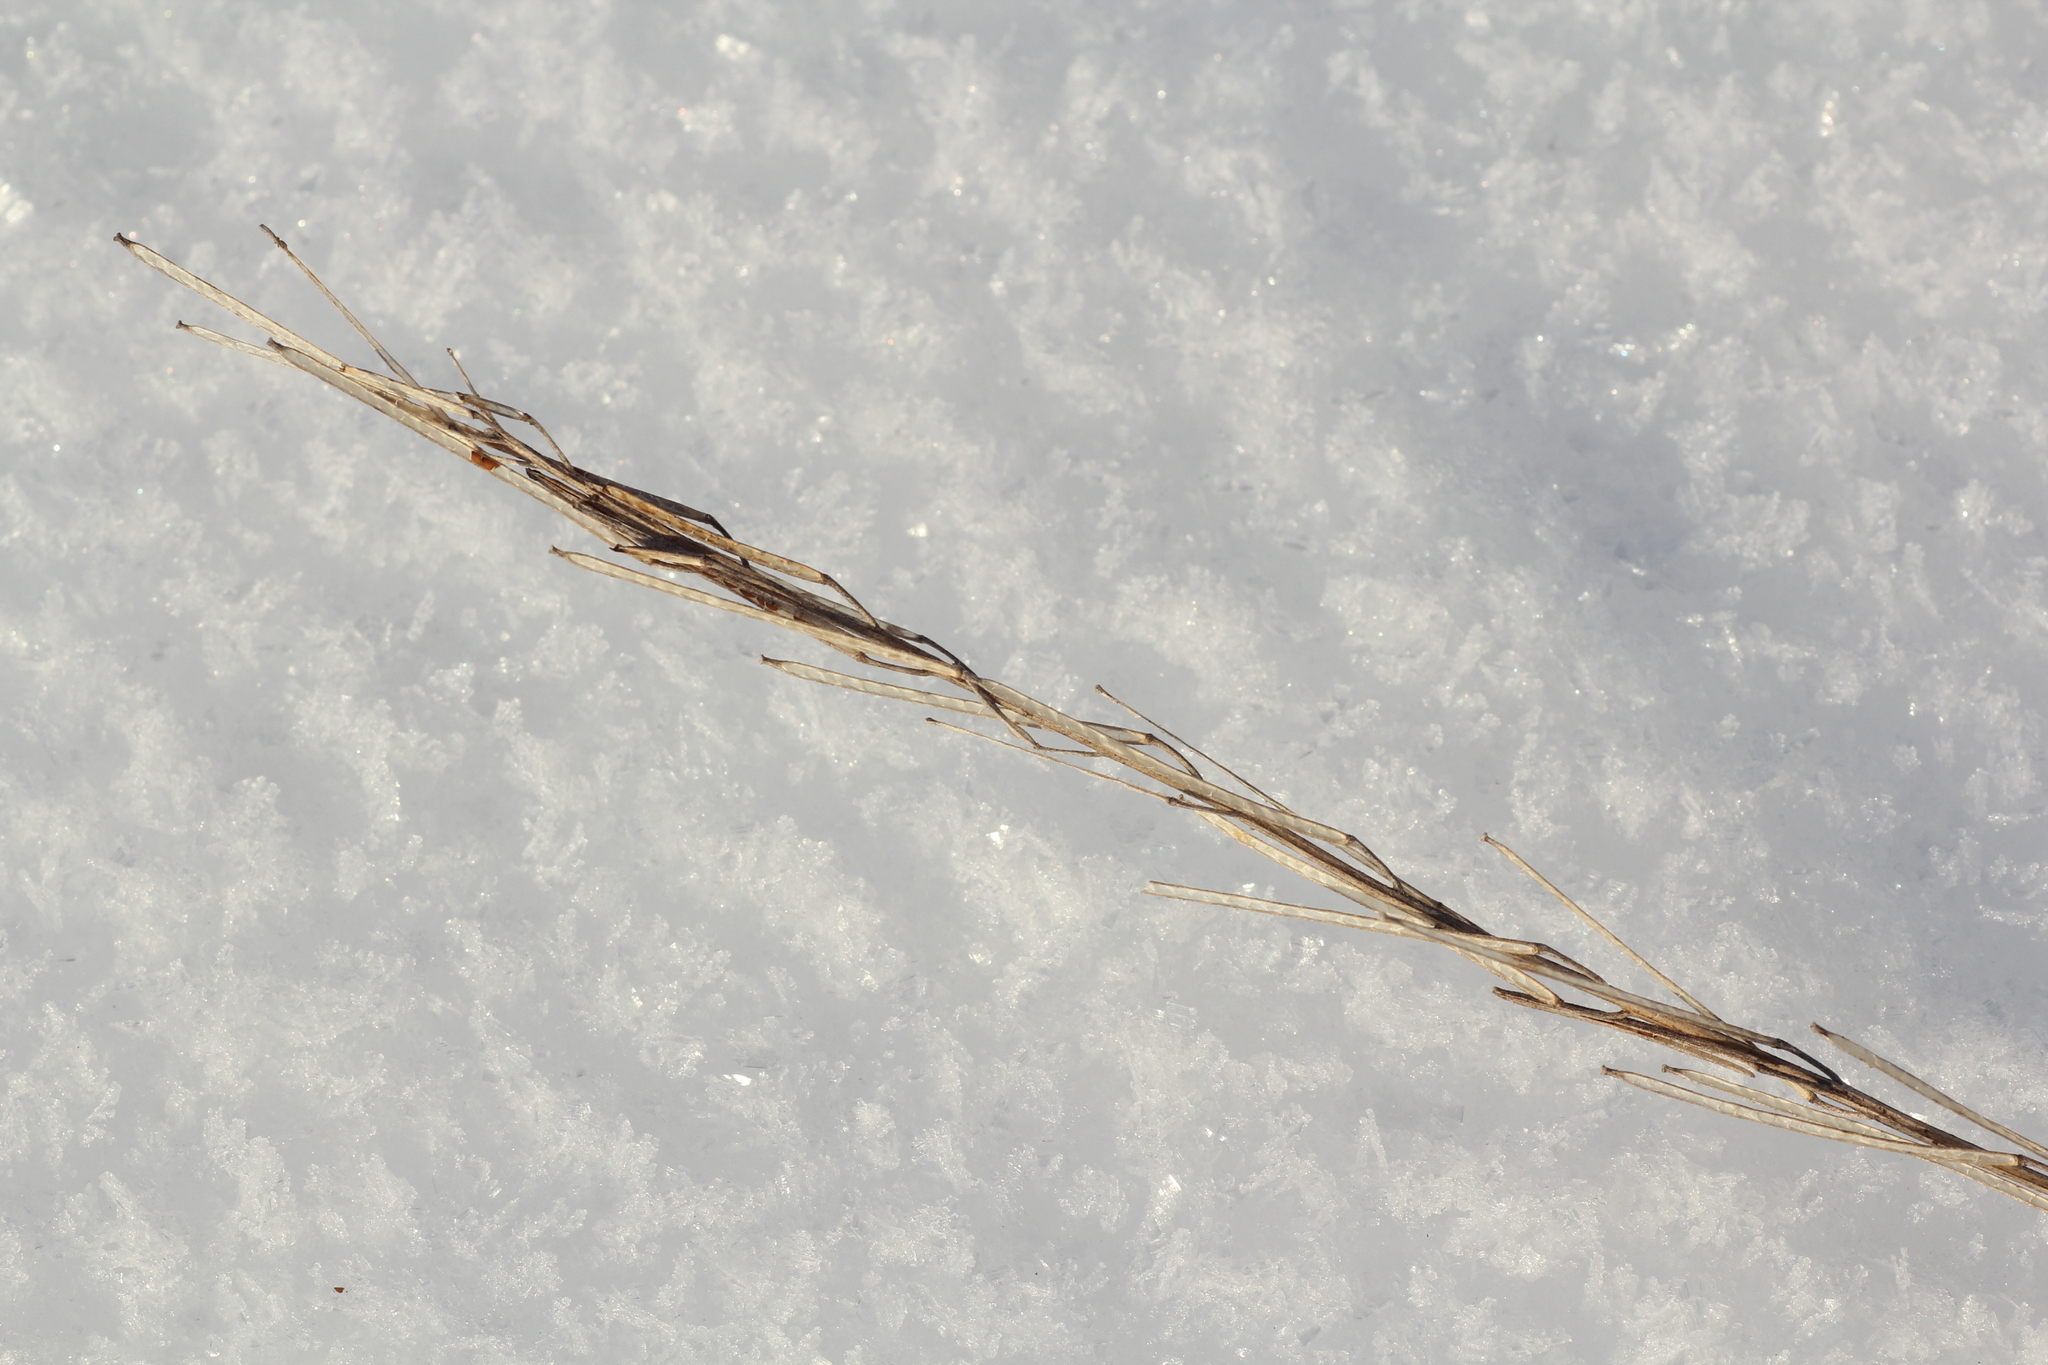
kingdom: Plantae
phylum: Tracheophyta
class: Magnoliopsida
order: Brassicales
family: Brassicaceae
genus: Erysimum
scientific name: Erysimum hieraciifolium
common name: European wallflower
